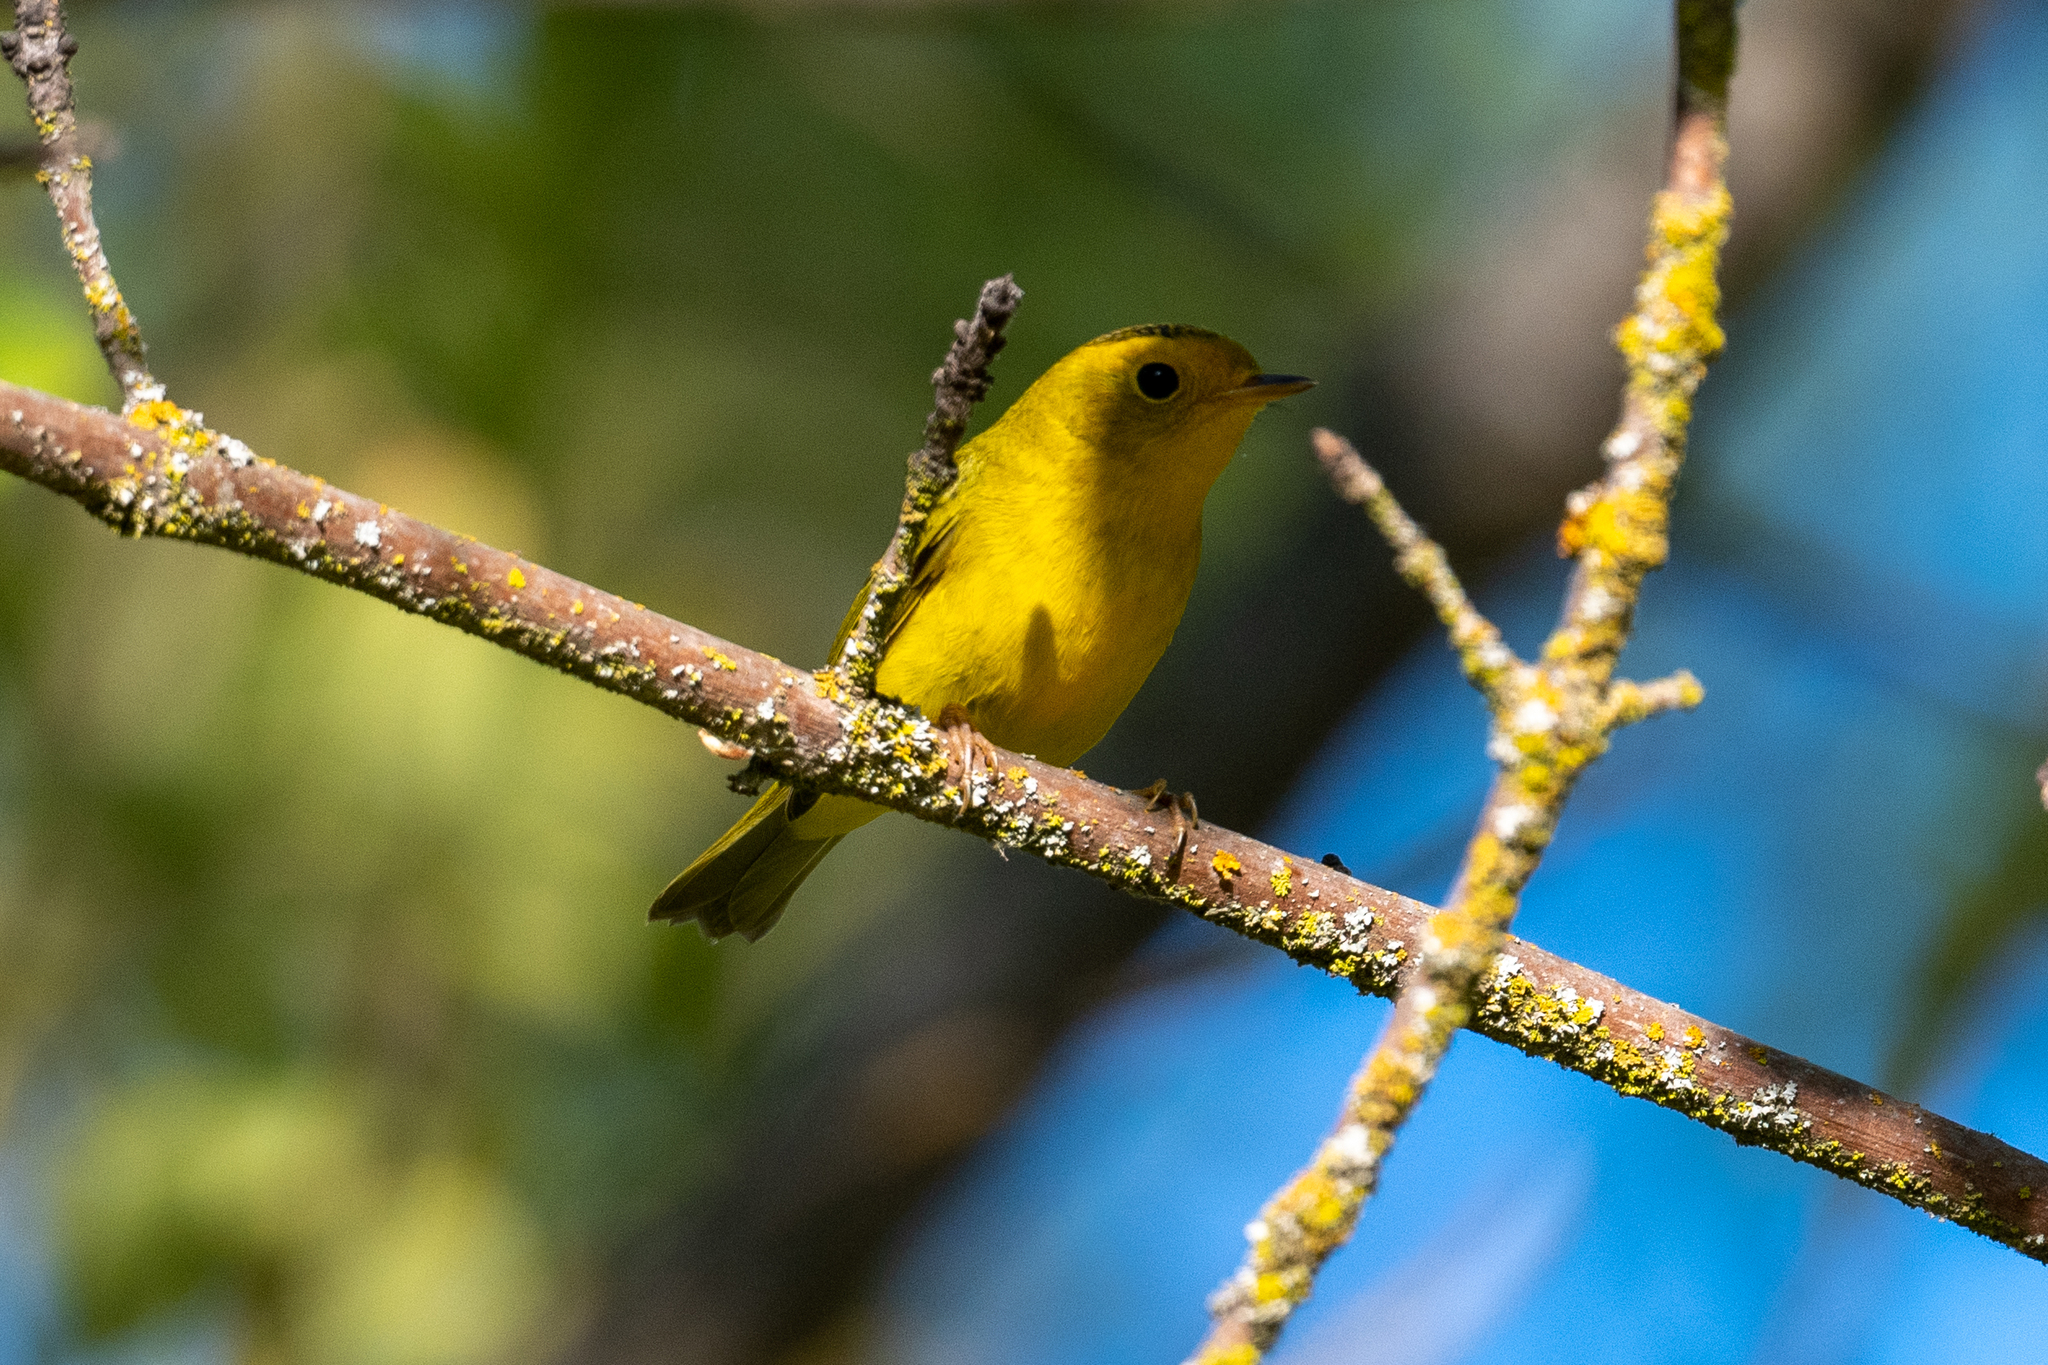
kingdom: Animalia
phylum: Chordata
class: Aves
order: Passeriformes
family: Parulidae
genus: Cardellina
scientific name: Cardellina pusilla
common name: Wilson's warbler
